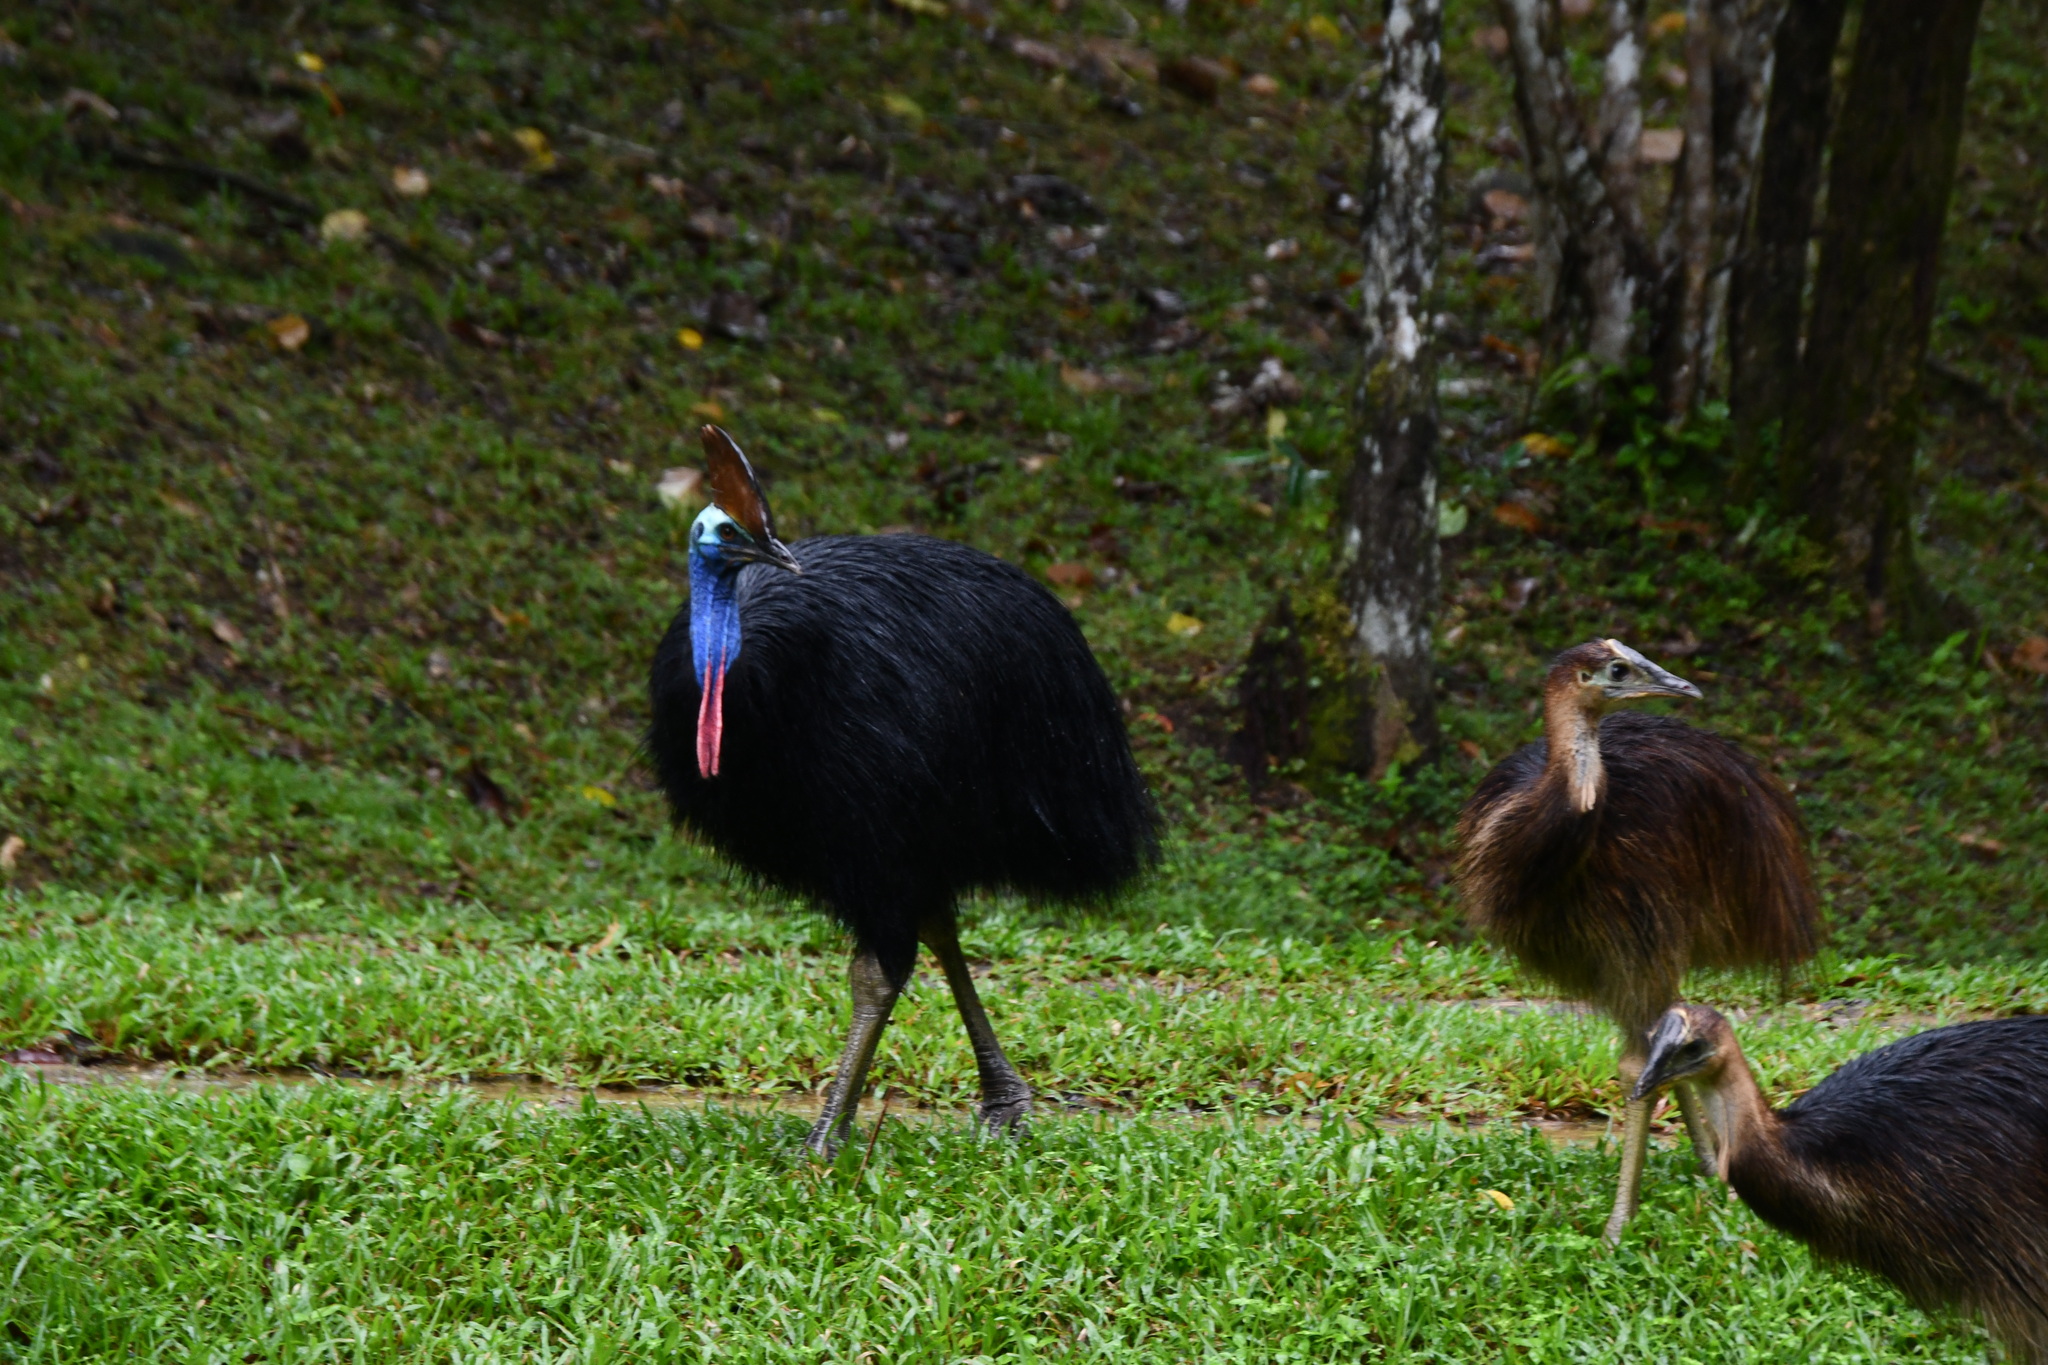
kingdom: Animalia
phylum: Chordata
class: Aves
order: Casuariiformes
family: Casuariidae
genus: Casuarius
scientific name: Casuarius casuarius
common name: Southern cassowary
